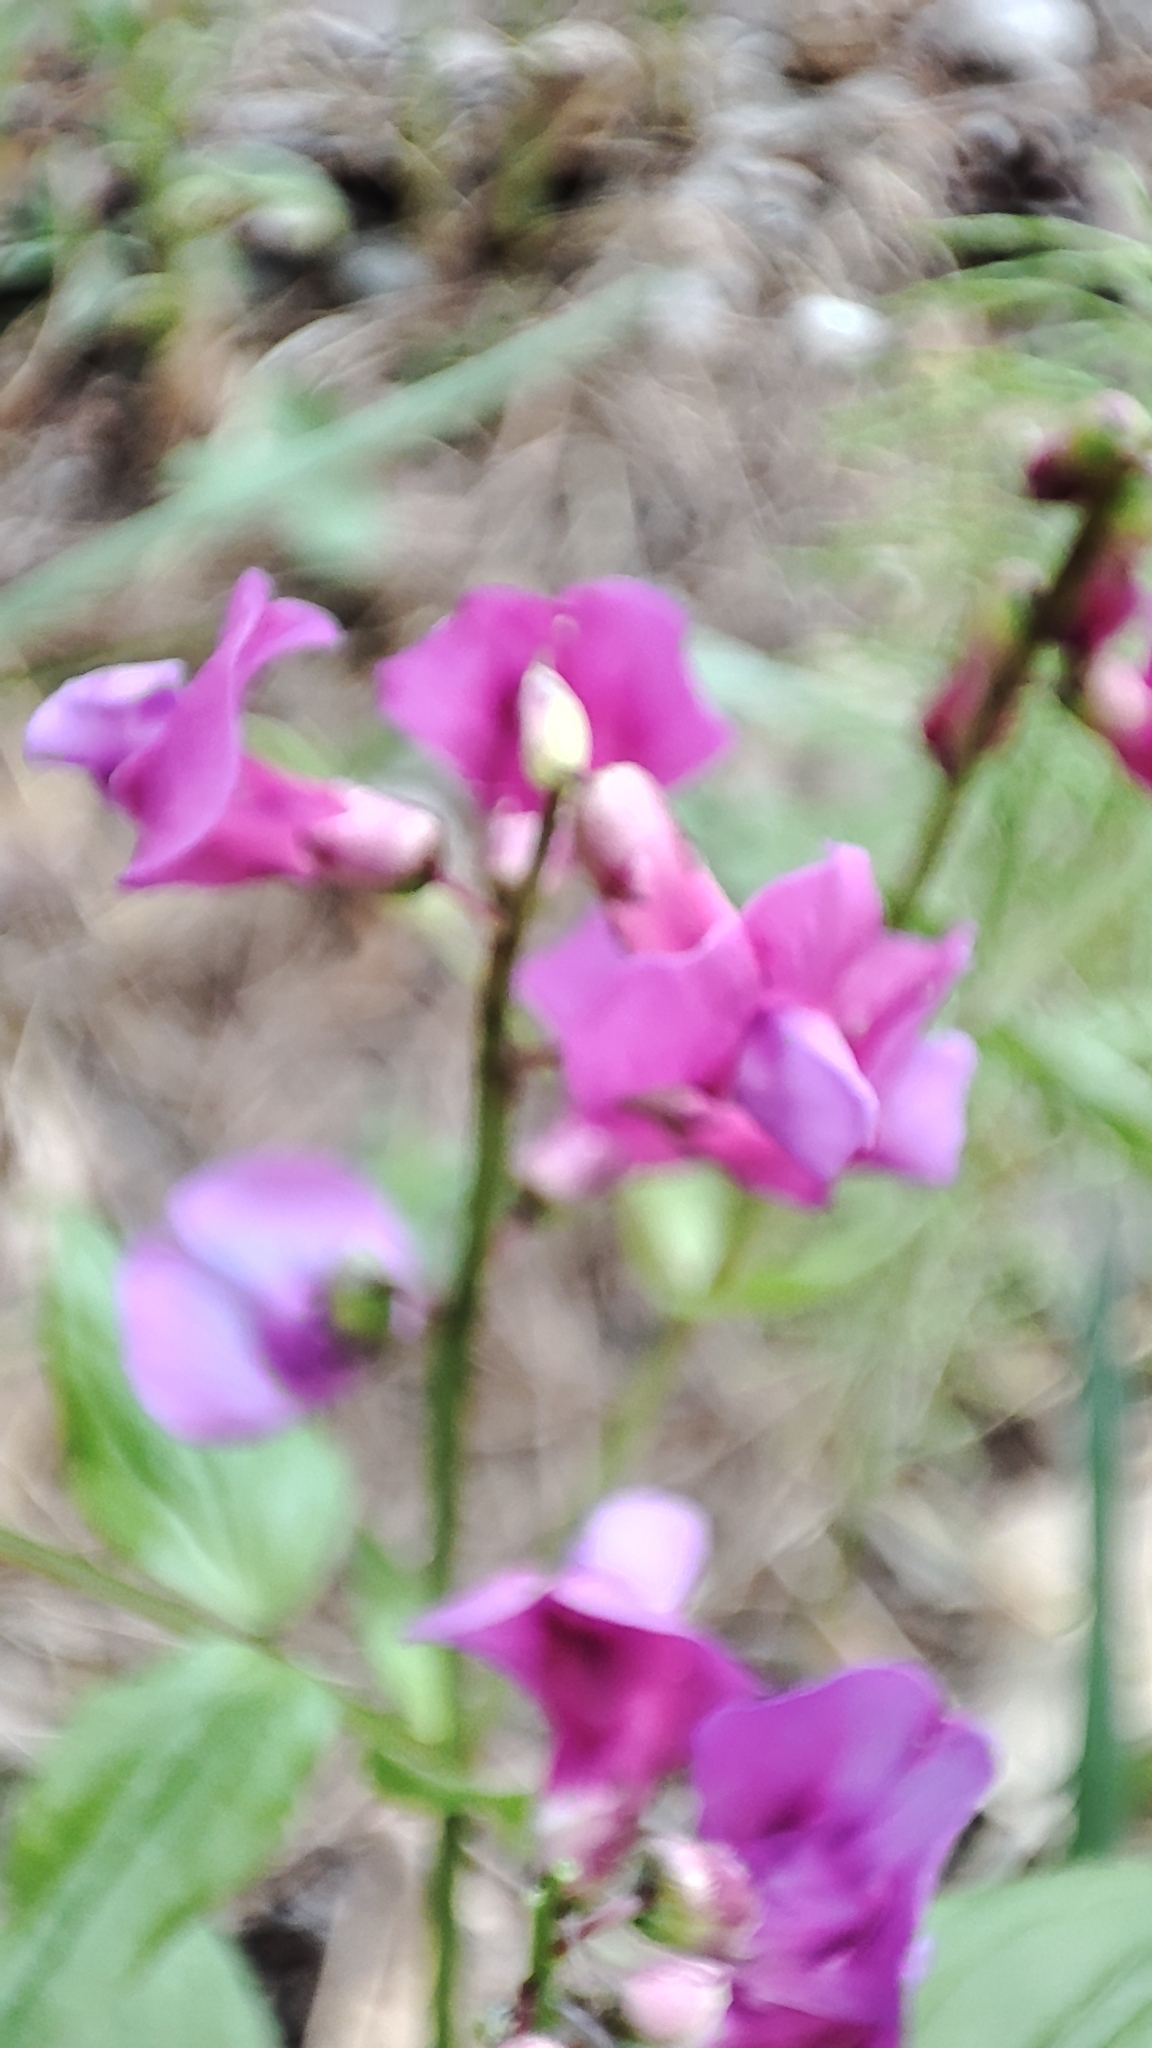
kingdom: Plantae
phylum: Tracheophyta
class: Magnoliopsida
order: Fabales
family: Fabaceae
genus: Lathyrus
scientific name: Lathyrus vernus
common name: Spring pea
